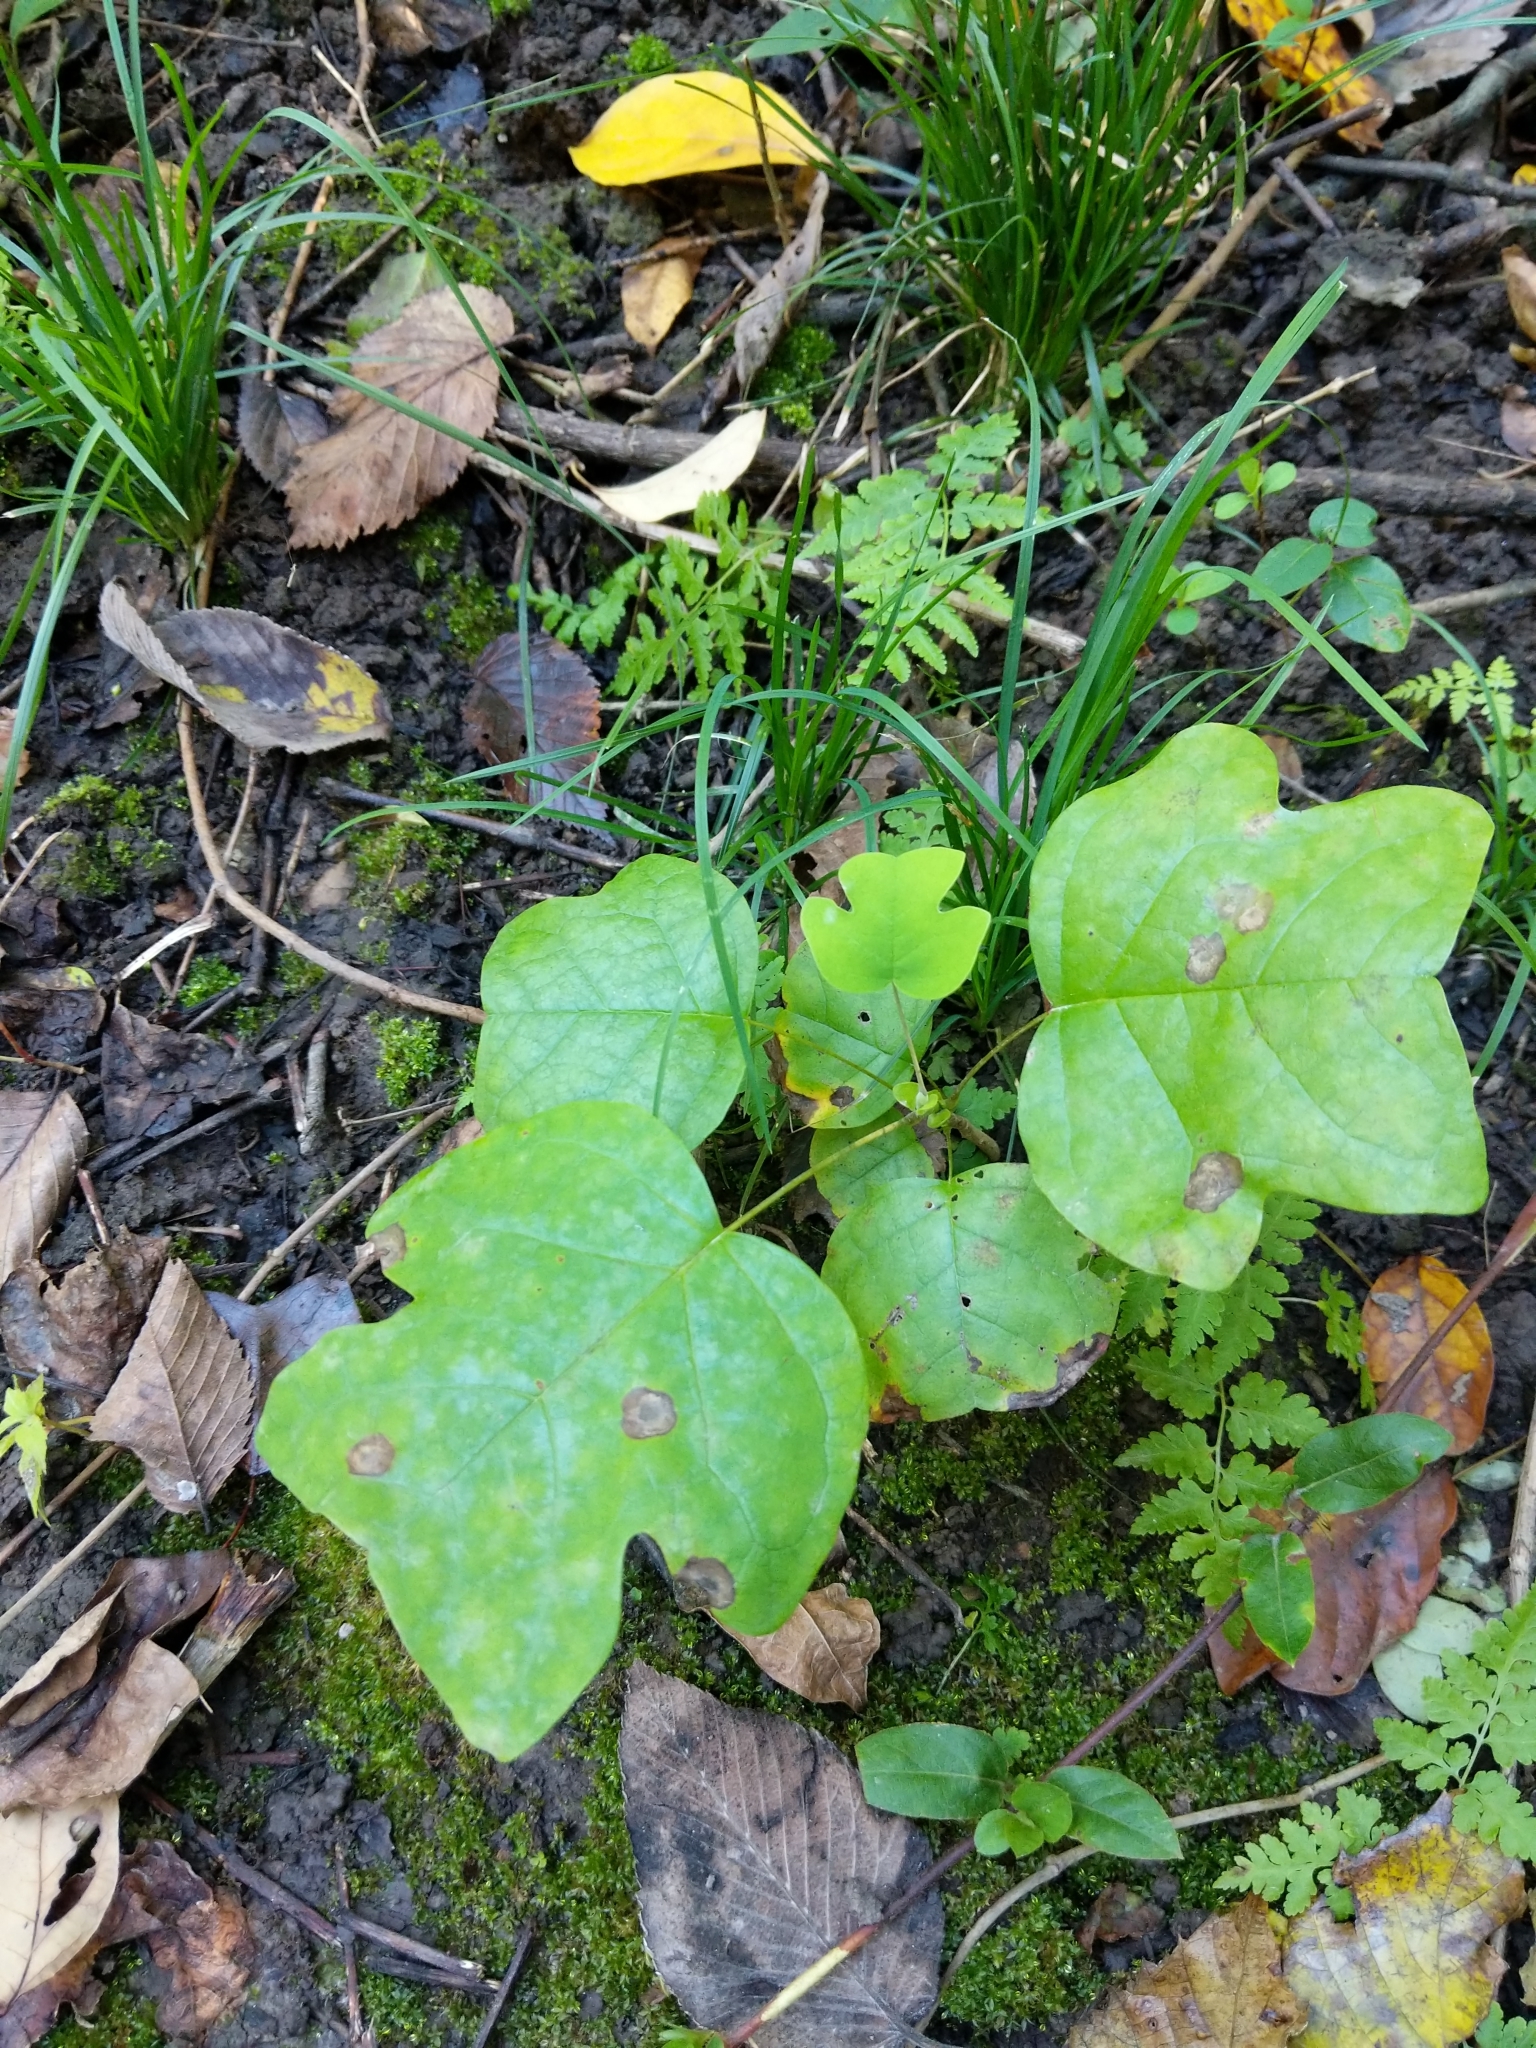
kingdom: Plantae
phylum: Tracheophyta
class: Magnoliopsida
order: Magnoliales
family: Magnoliaceae
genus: Liriodendron
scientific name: Liriodendron tulipifera
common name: Tulip tree
